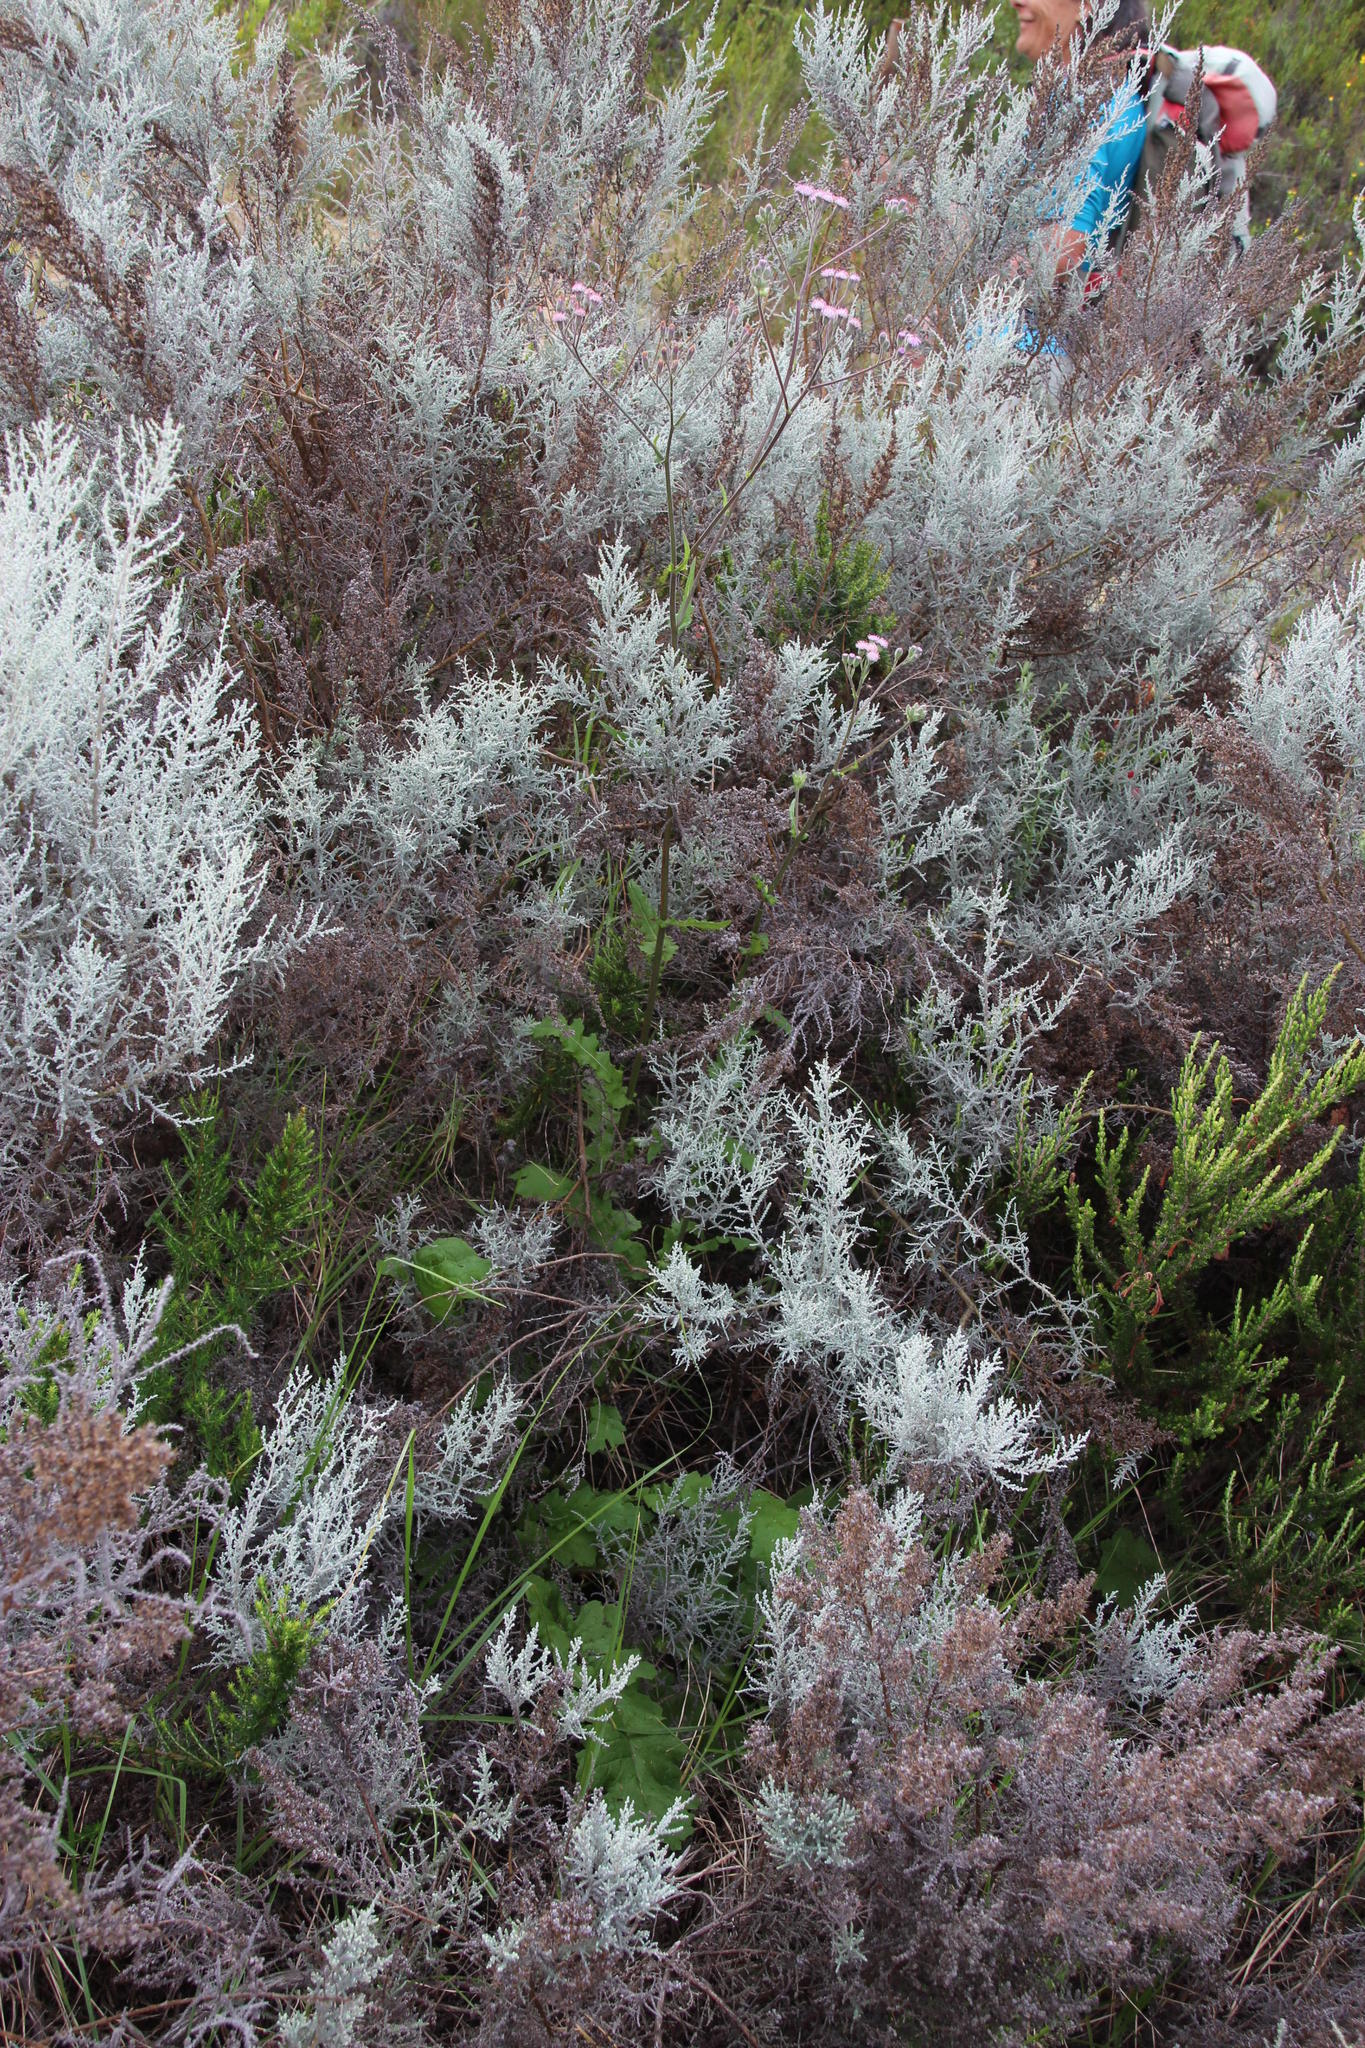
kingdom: Plantae
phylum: Tracheophyta
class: Magnoliopsida
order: Asterales
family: Asteraceae
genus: Senecio
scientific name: Senecio purpureus
